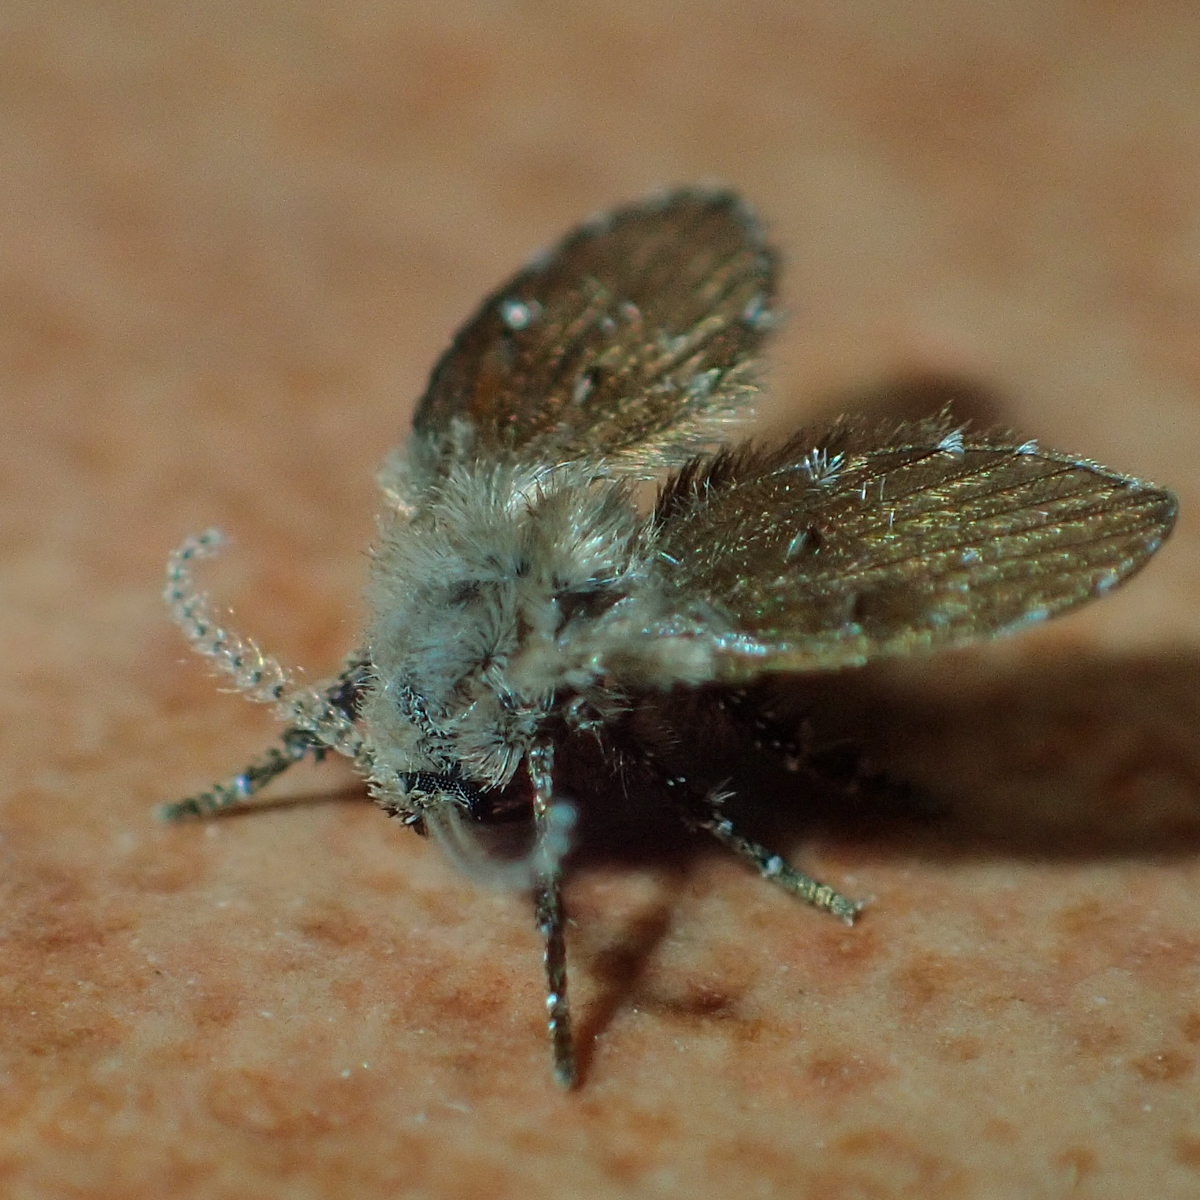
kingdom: Animalia
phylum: Arthropoda
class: Insecta
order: Diptera
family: Psychodidae
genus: Clogmia
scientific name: Clogmia albipunctatus
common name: White-spotted moth fly
